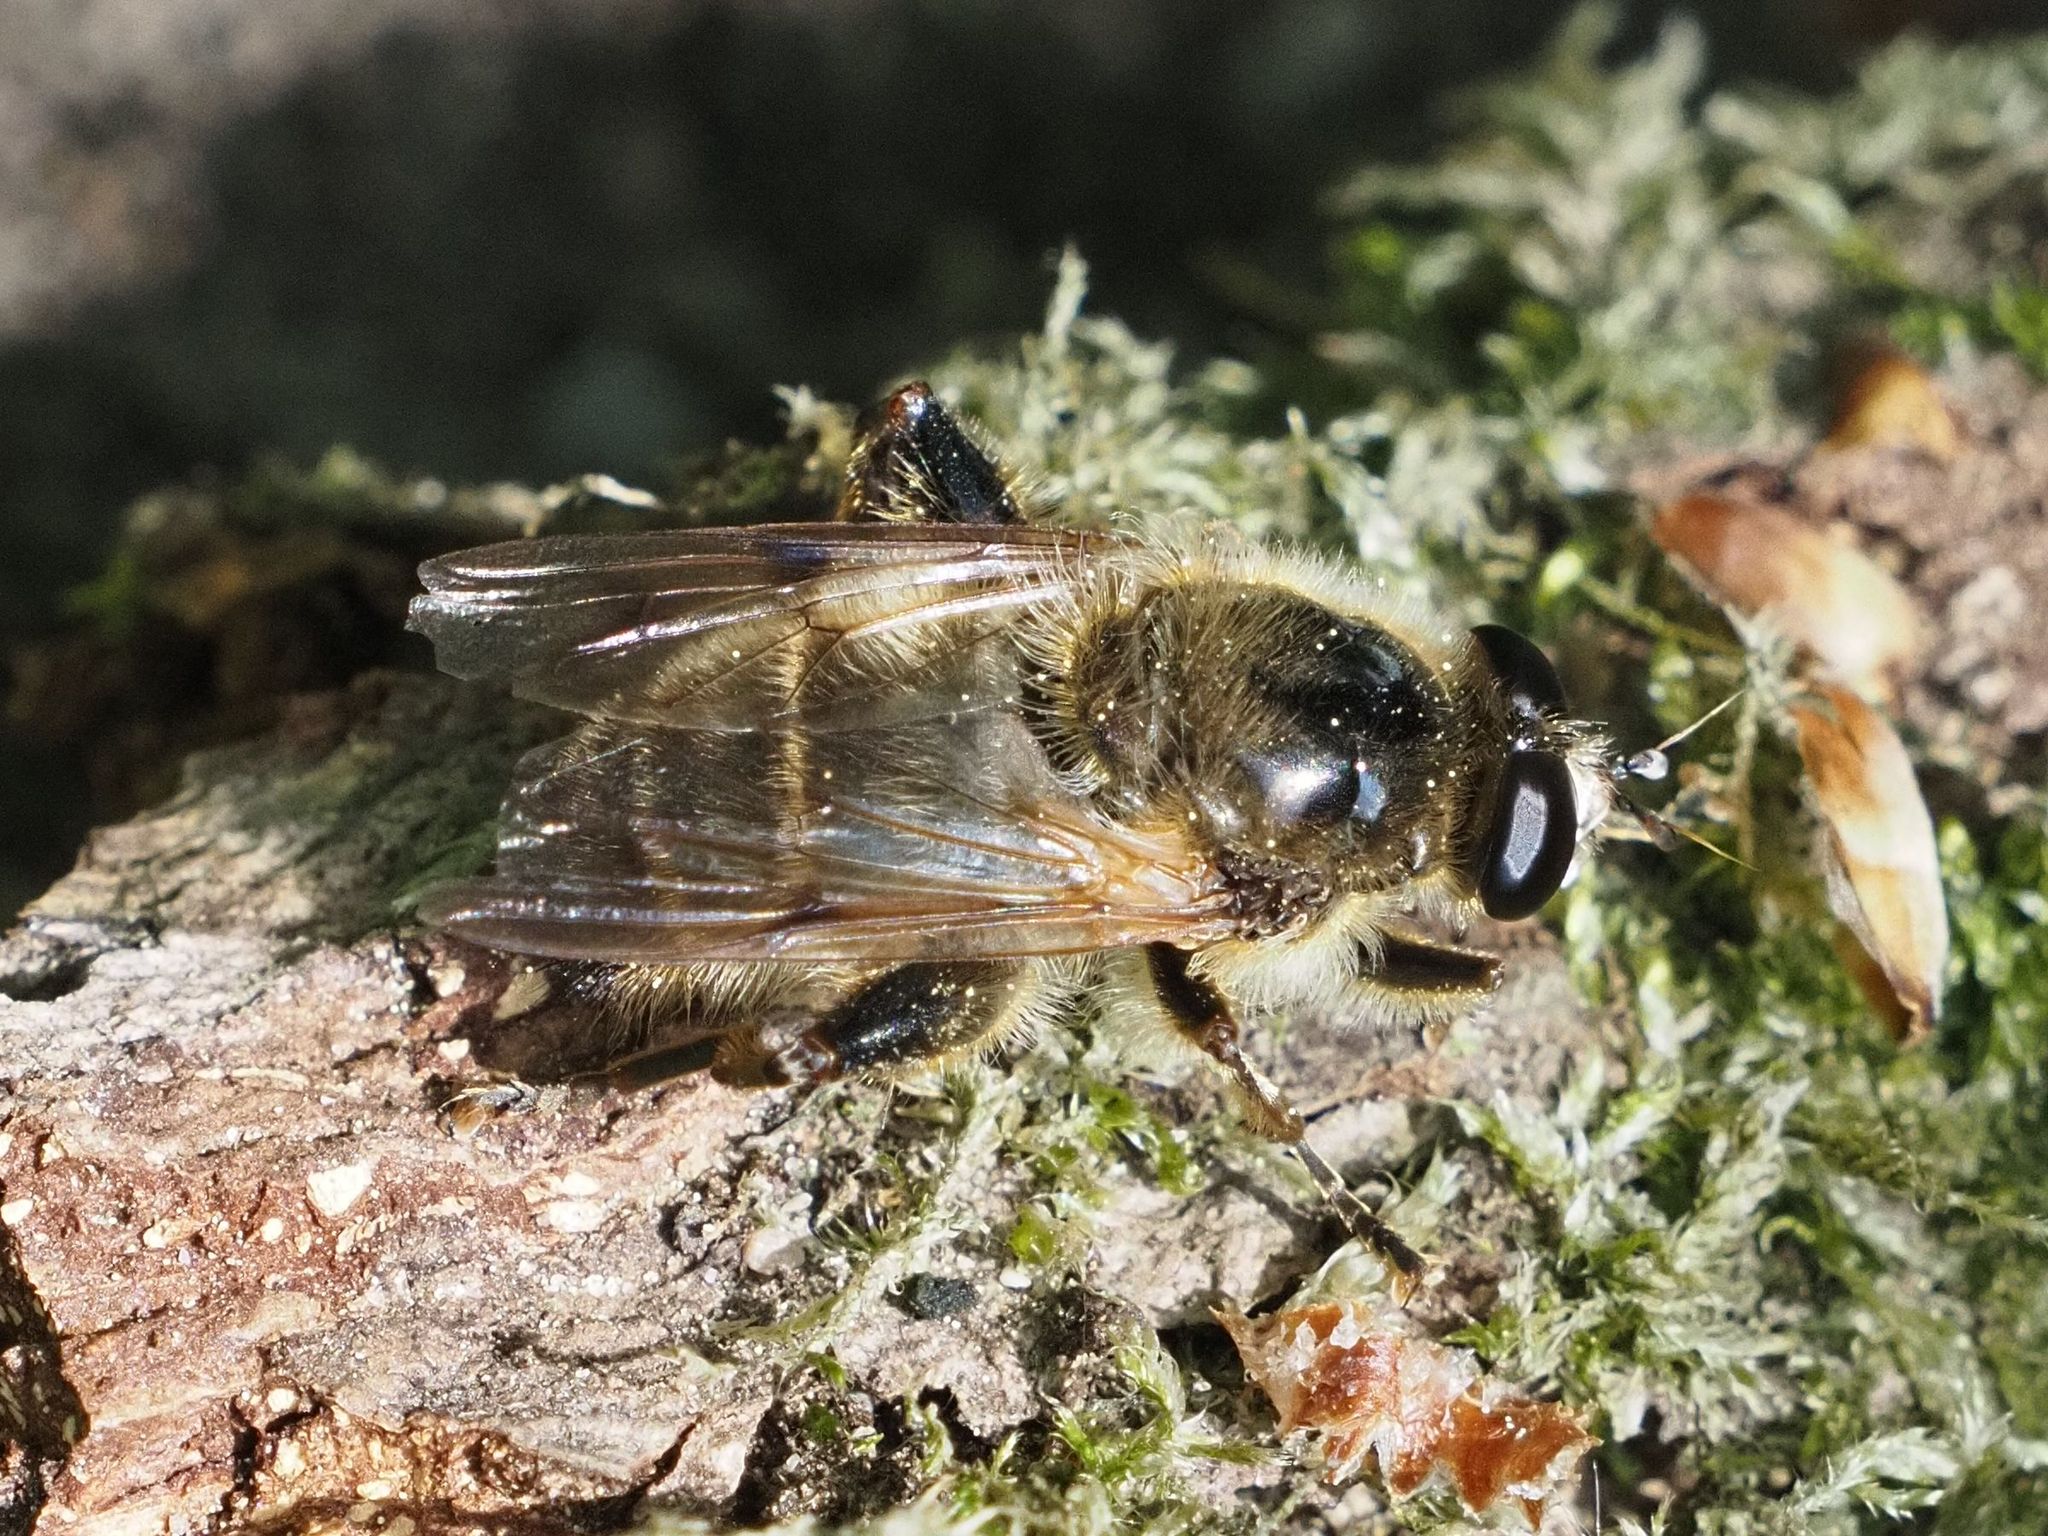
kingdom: Animalia
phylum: Arthropoda
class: Insecta
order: Diptera
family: Syrphidae
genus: Brachypalpus
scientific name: Brachypalpus valgus
